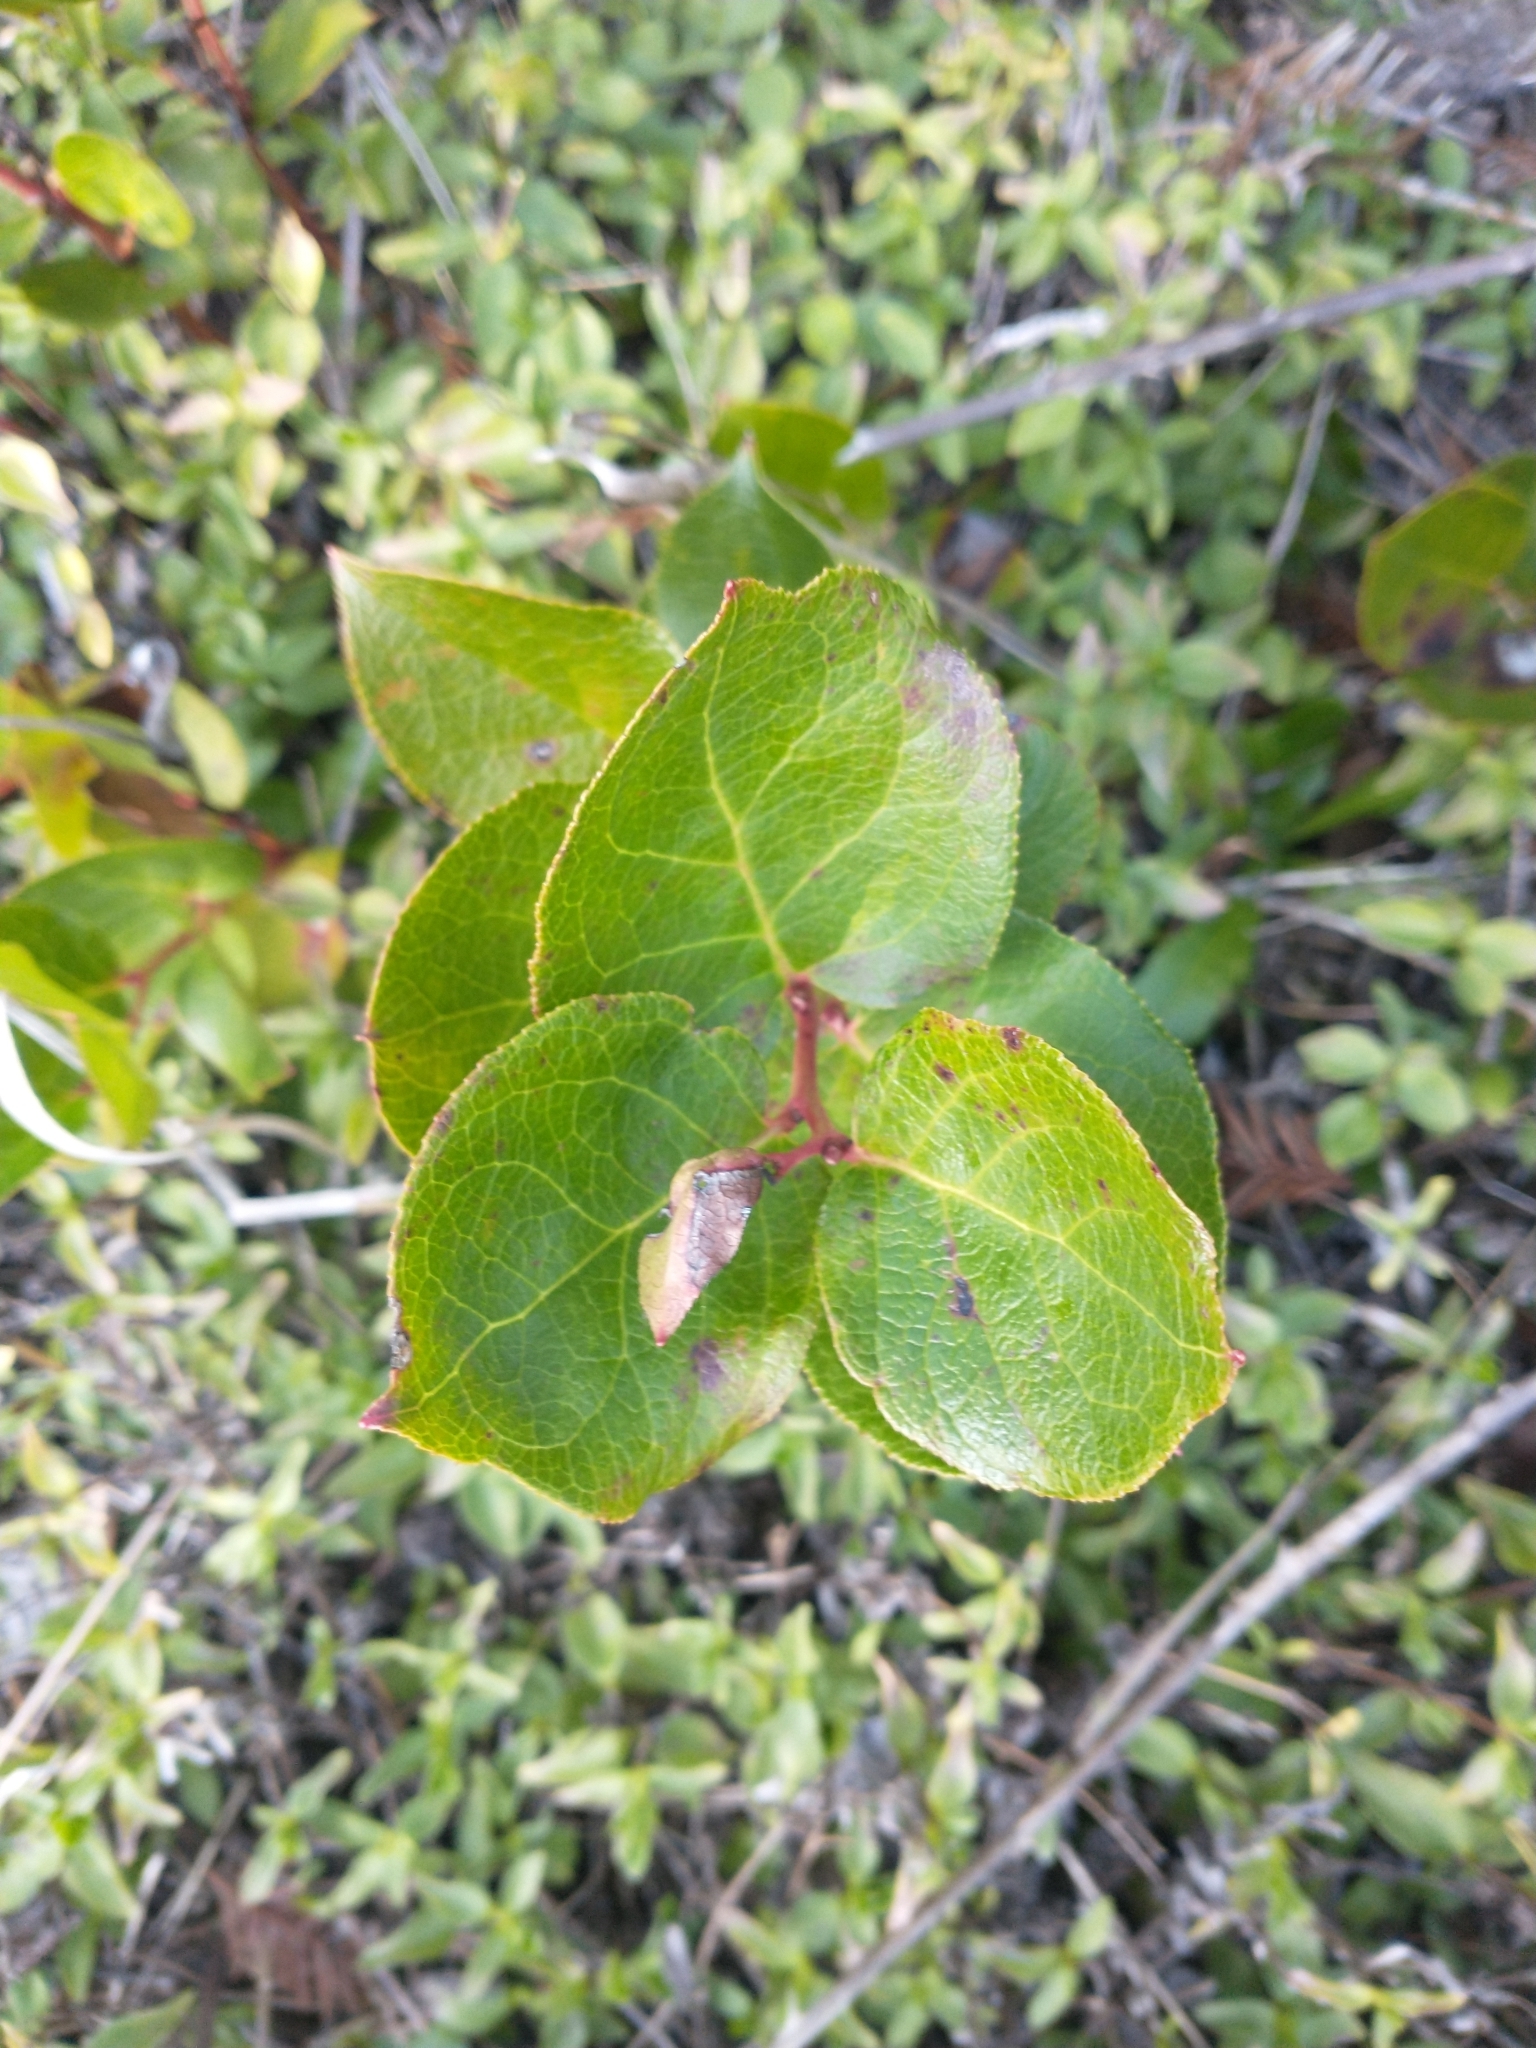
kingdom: Plantae
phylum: Tracheophyta
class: Magnoliopsida
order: Ericales
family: Ericaceae
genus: Gaultheria
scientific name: Gaultheria shallon
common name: Shallon
